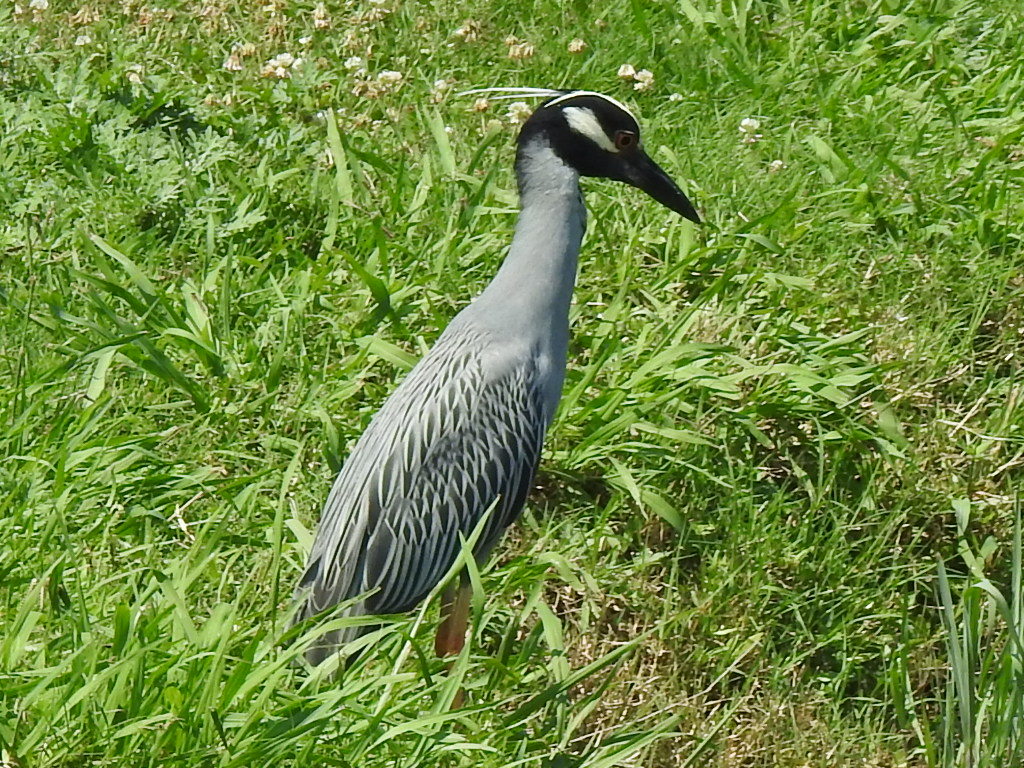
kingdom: Animalia
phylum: Chordata
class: Aves
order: Pelecaniformes
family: Ardeidae
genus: Nyctanassa
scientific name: Nyctanassa violacea
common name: Yellow-crowned night heron
